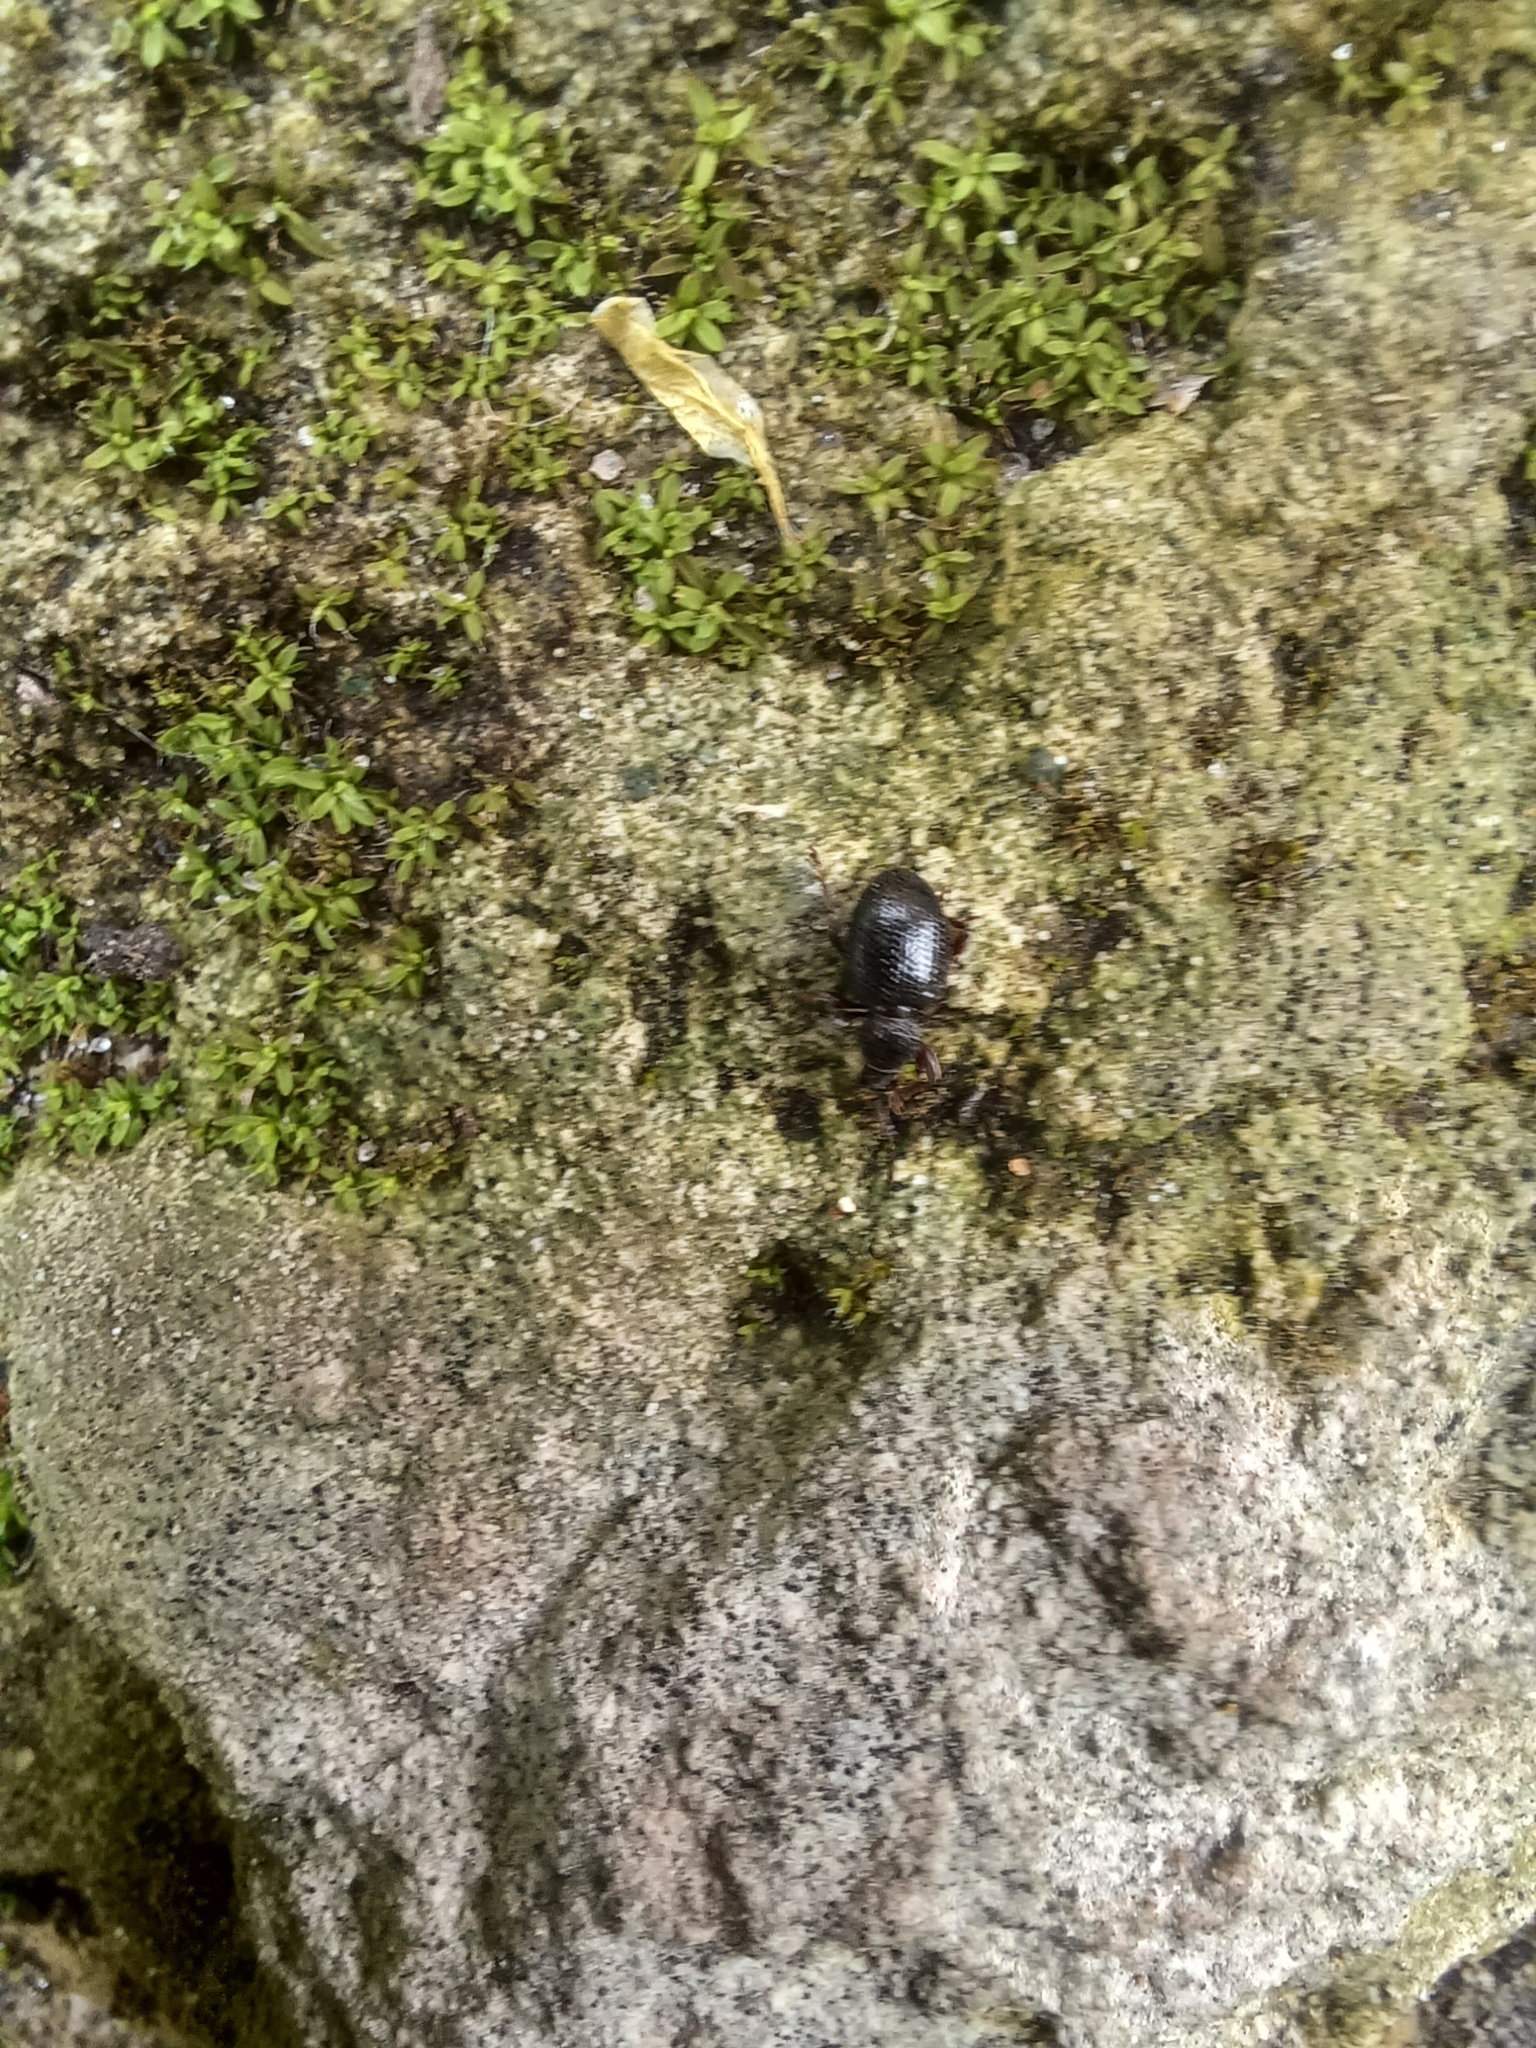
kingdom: Animalia
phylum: Arthropoda
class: Insecta
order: Coleoptera
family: Curculionidae
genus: Otiorhynchus
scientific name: Otiorhynchus ovatus
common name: Strawberry root weevil
